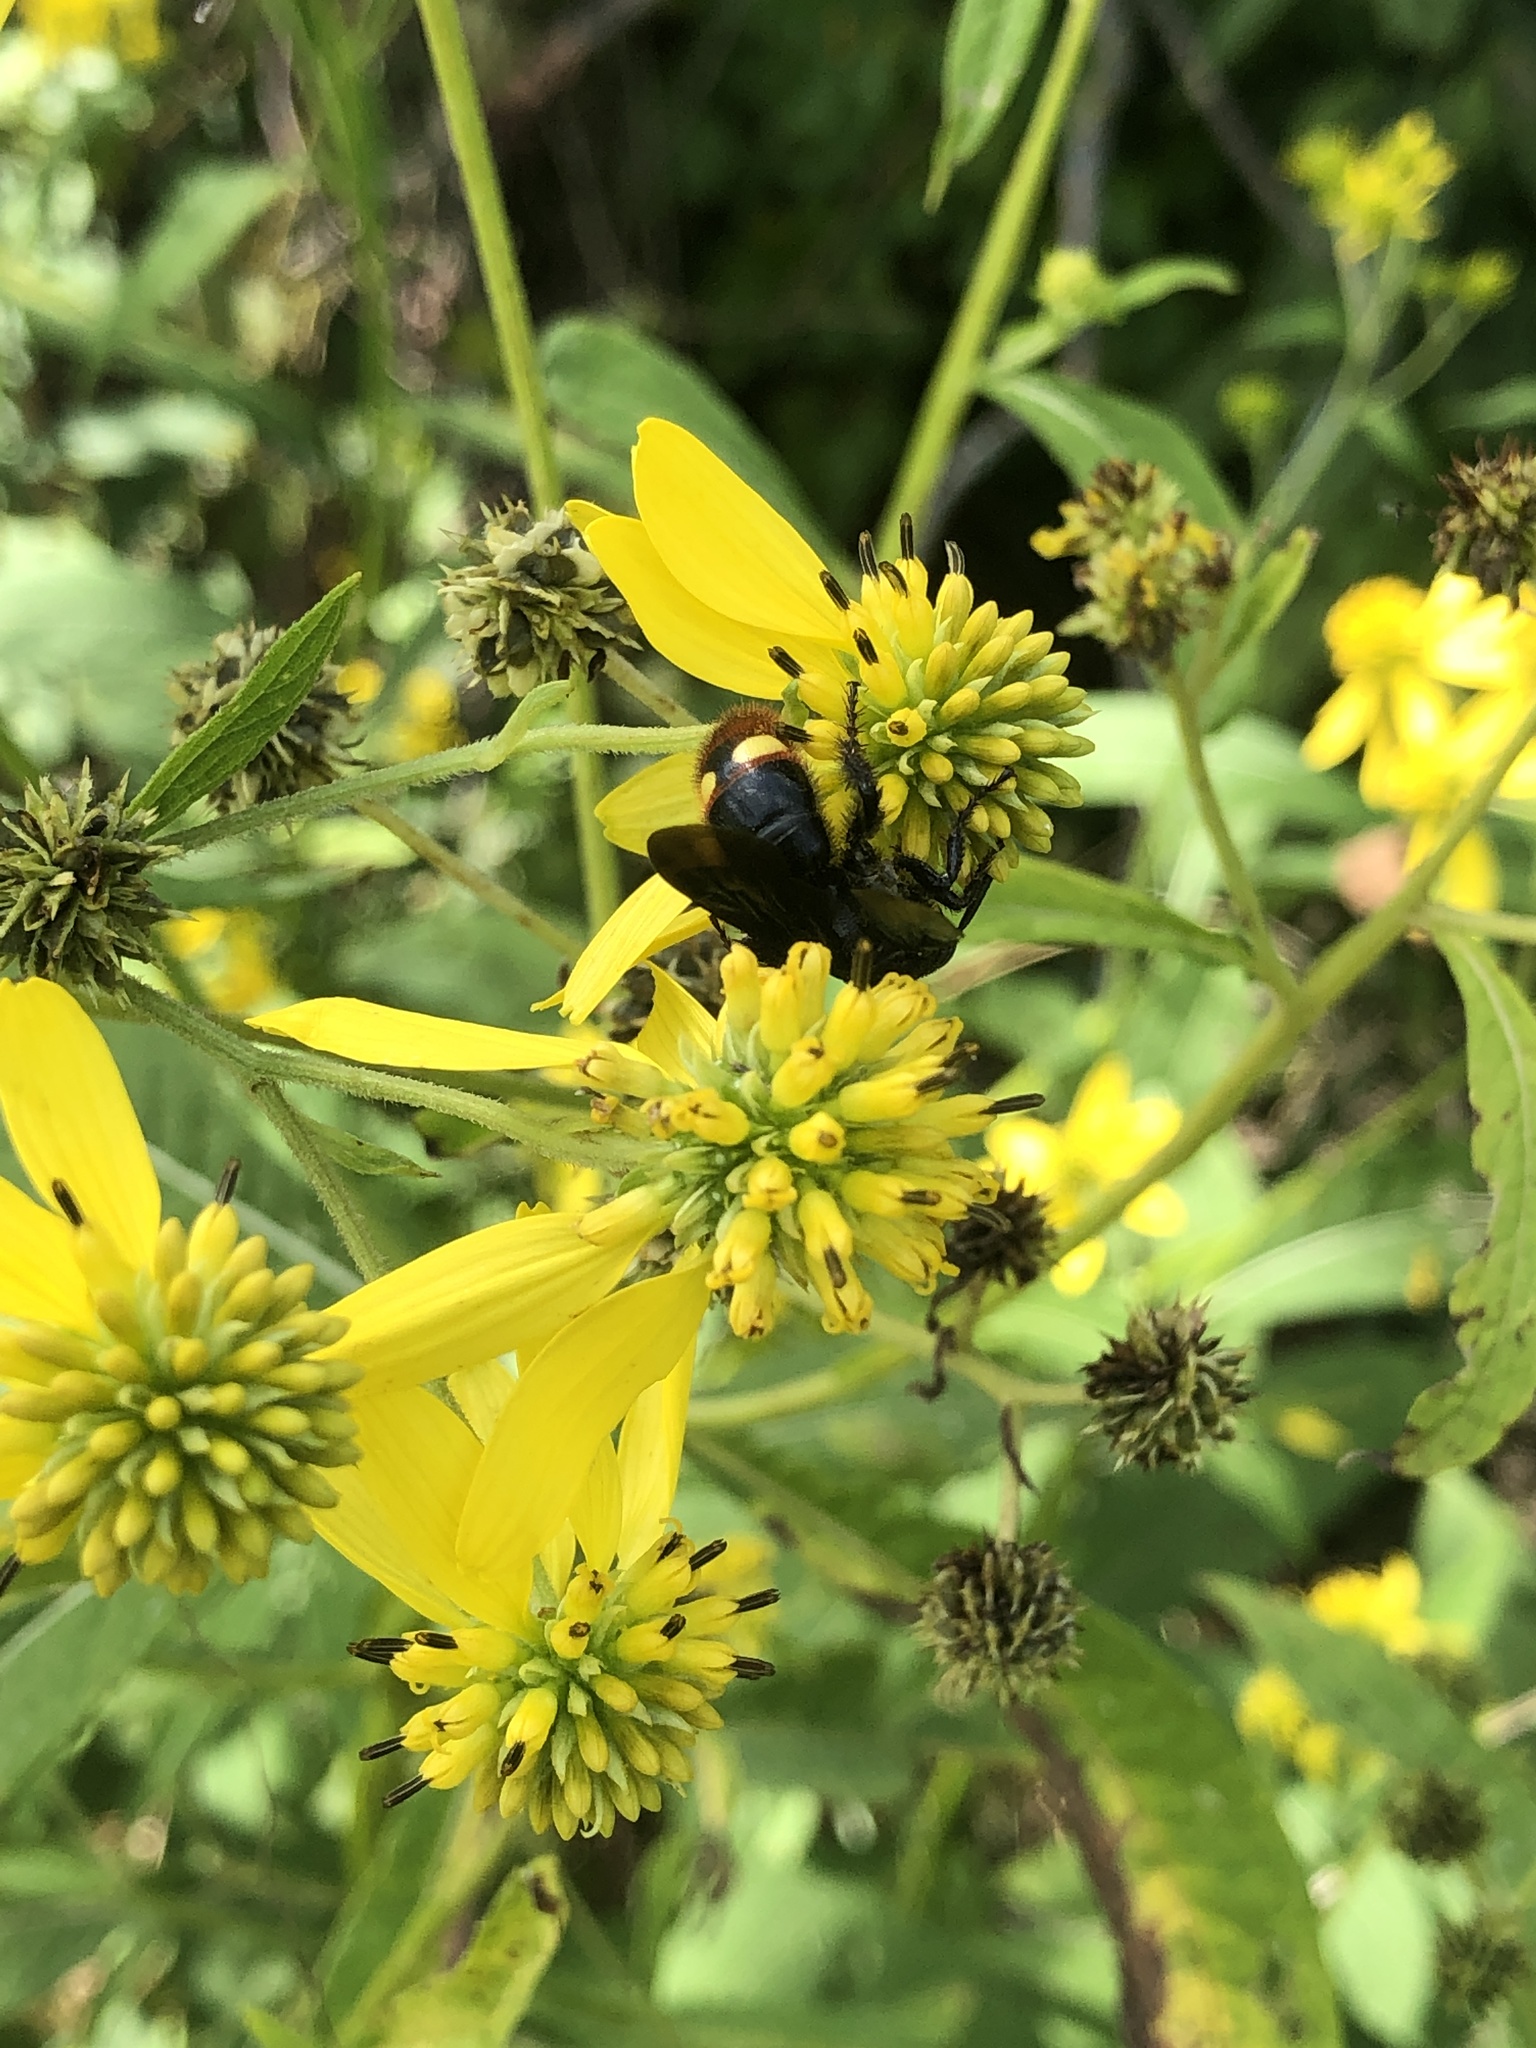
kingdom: Animalia
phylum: Arthropoda
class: Insecta
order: Hymenoptera
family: Scoliidae
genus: Scolia
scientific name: Scolia dubia
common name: Blue-winged scoliid wasp
